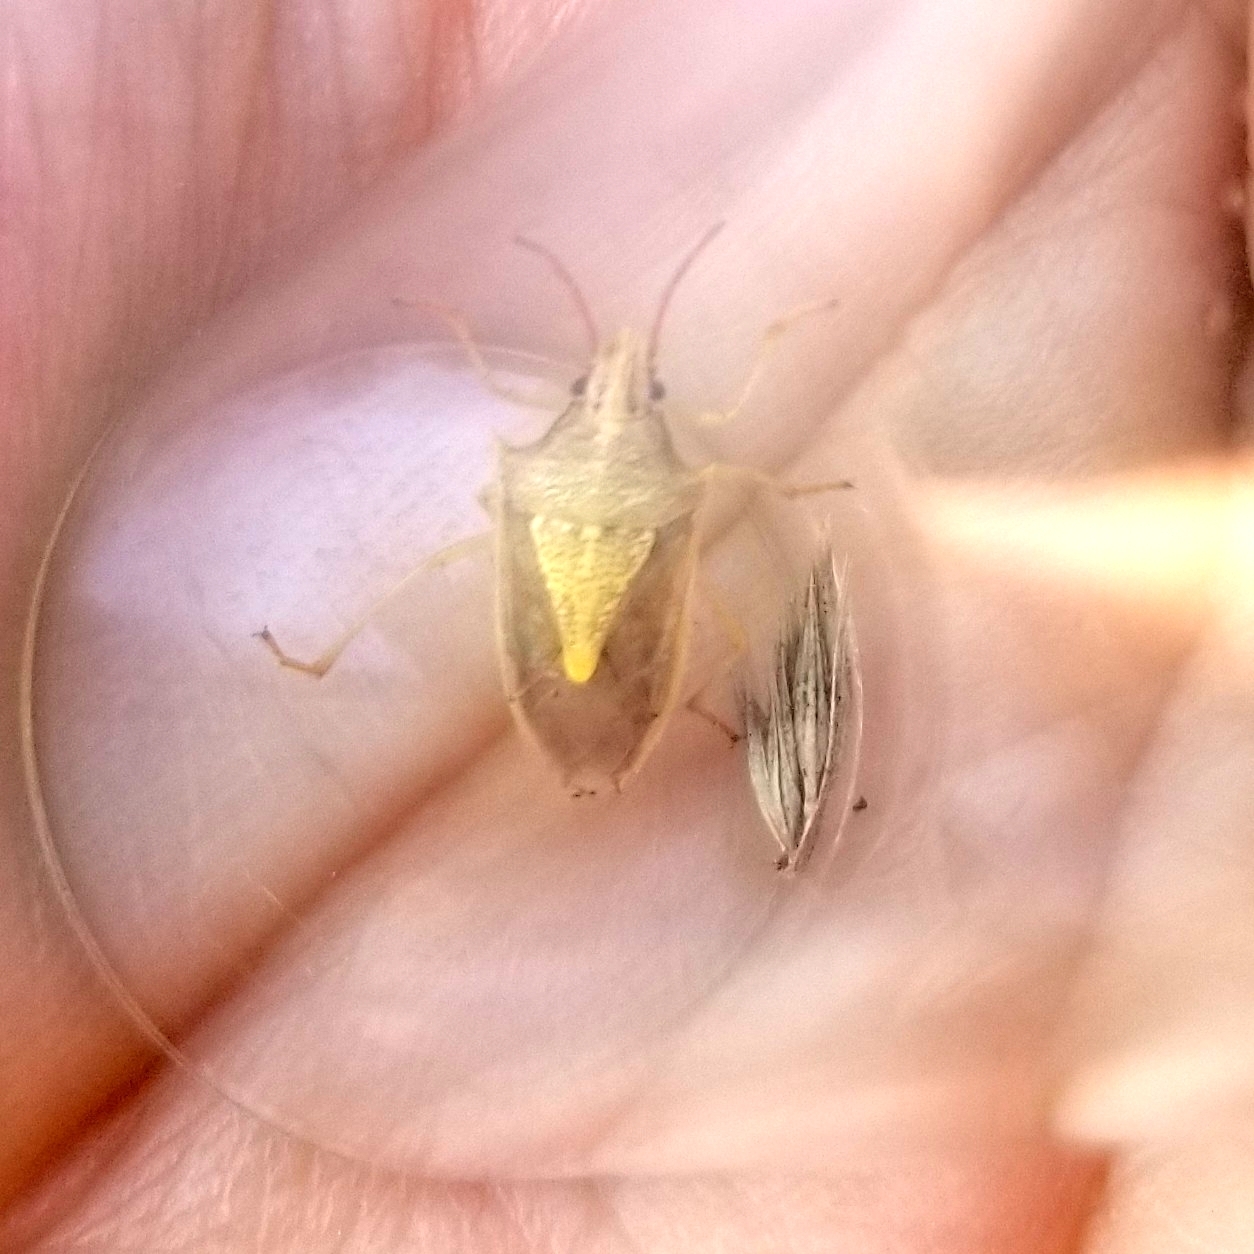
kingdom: Animalia
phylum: Arthropoda
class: Insecta
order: Hemiptera
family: Pentatomidae
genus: Oebalus
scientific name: Oebalus pugnax
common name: Rice stink bug
